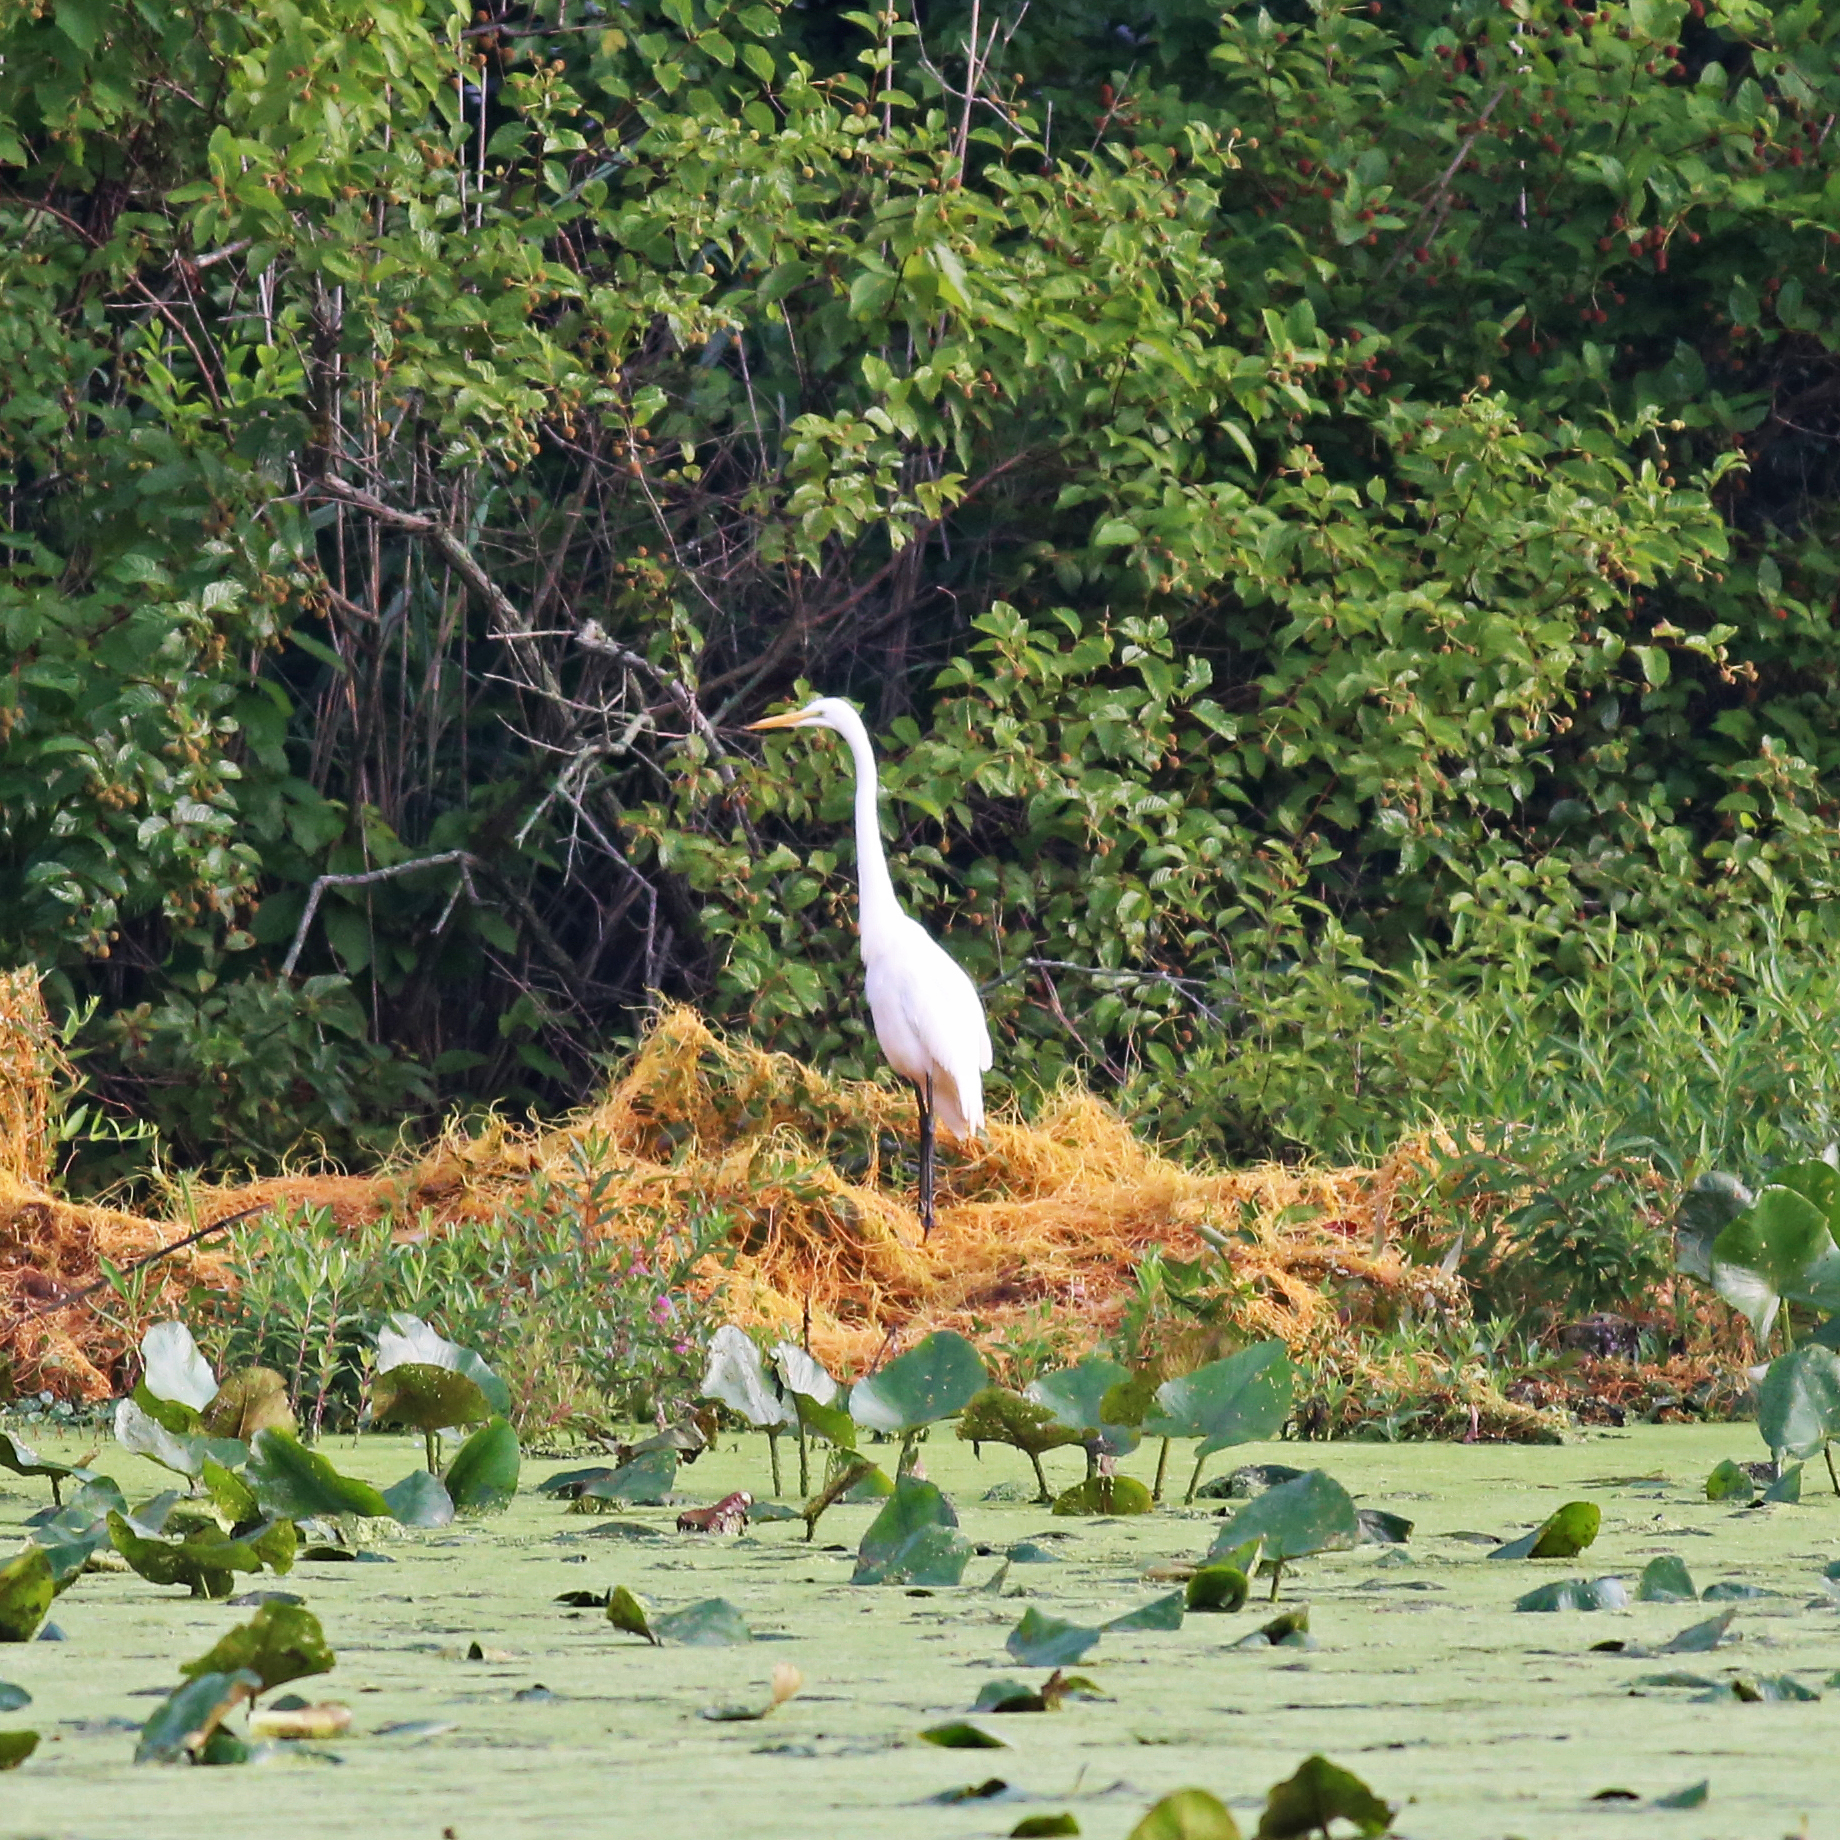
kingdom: Animalia
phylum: Chordata
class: Aves
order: Pelecaniformes
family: Ardeidae
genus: Ardea
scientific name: Ardea alba
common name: Great egret
